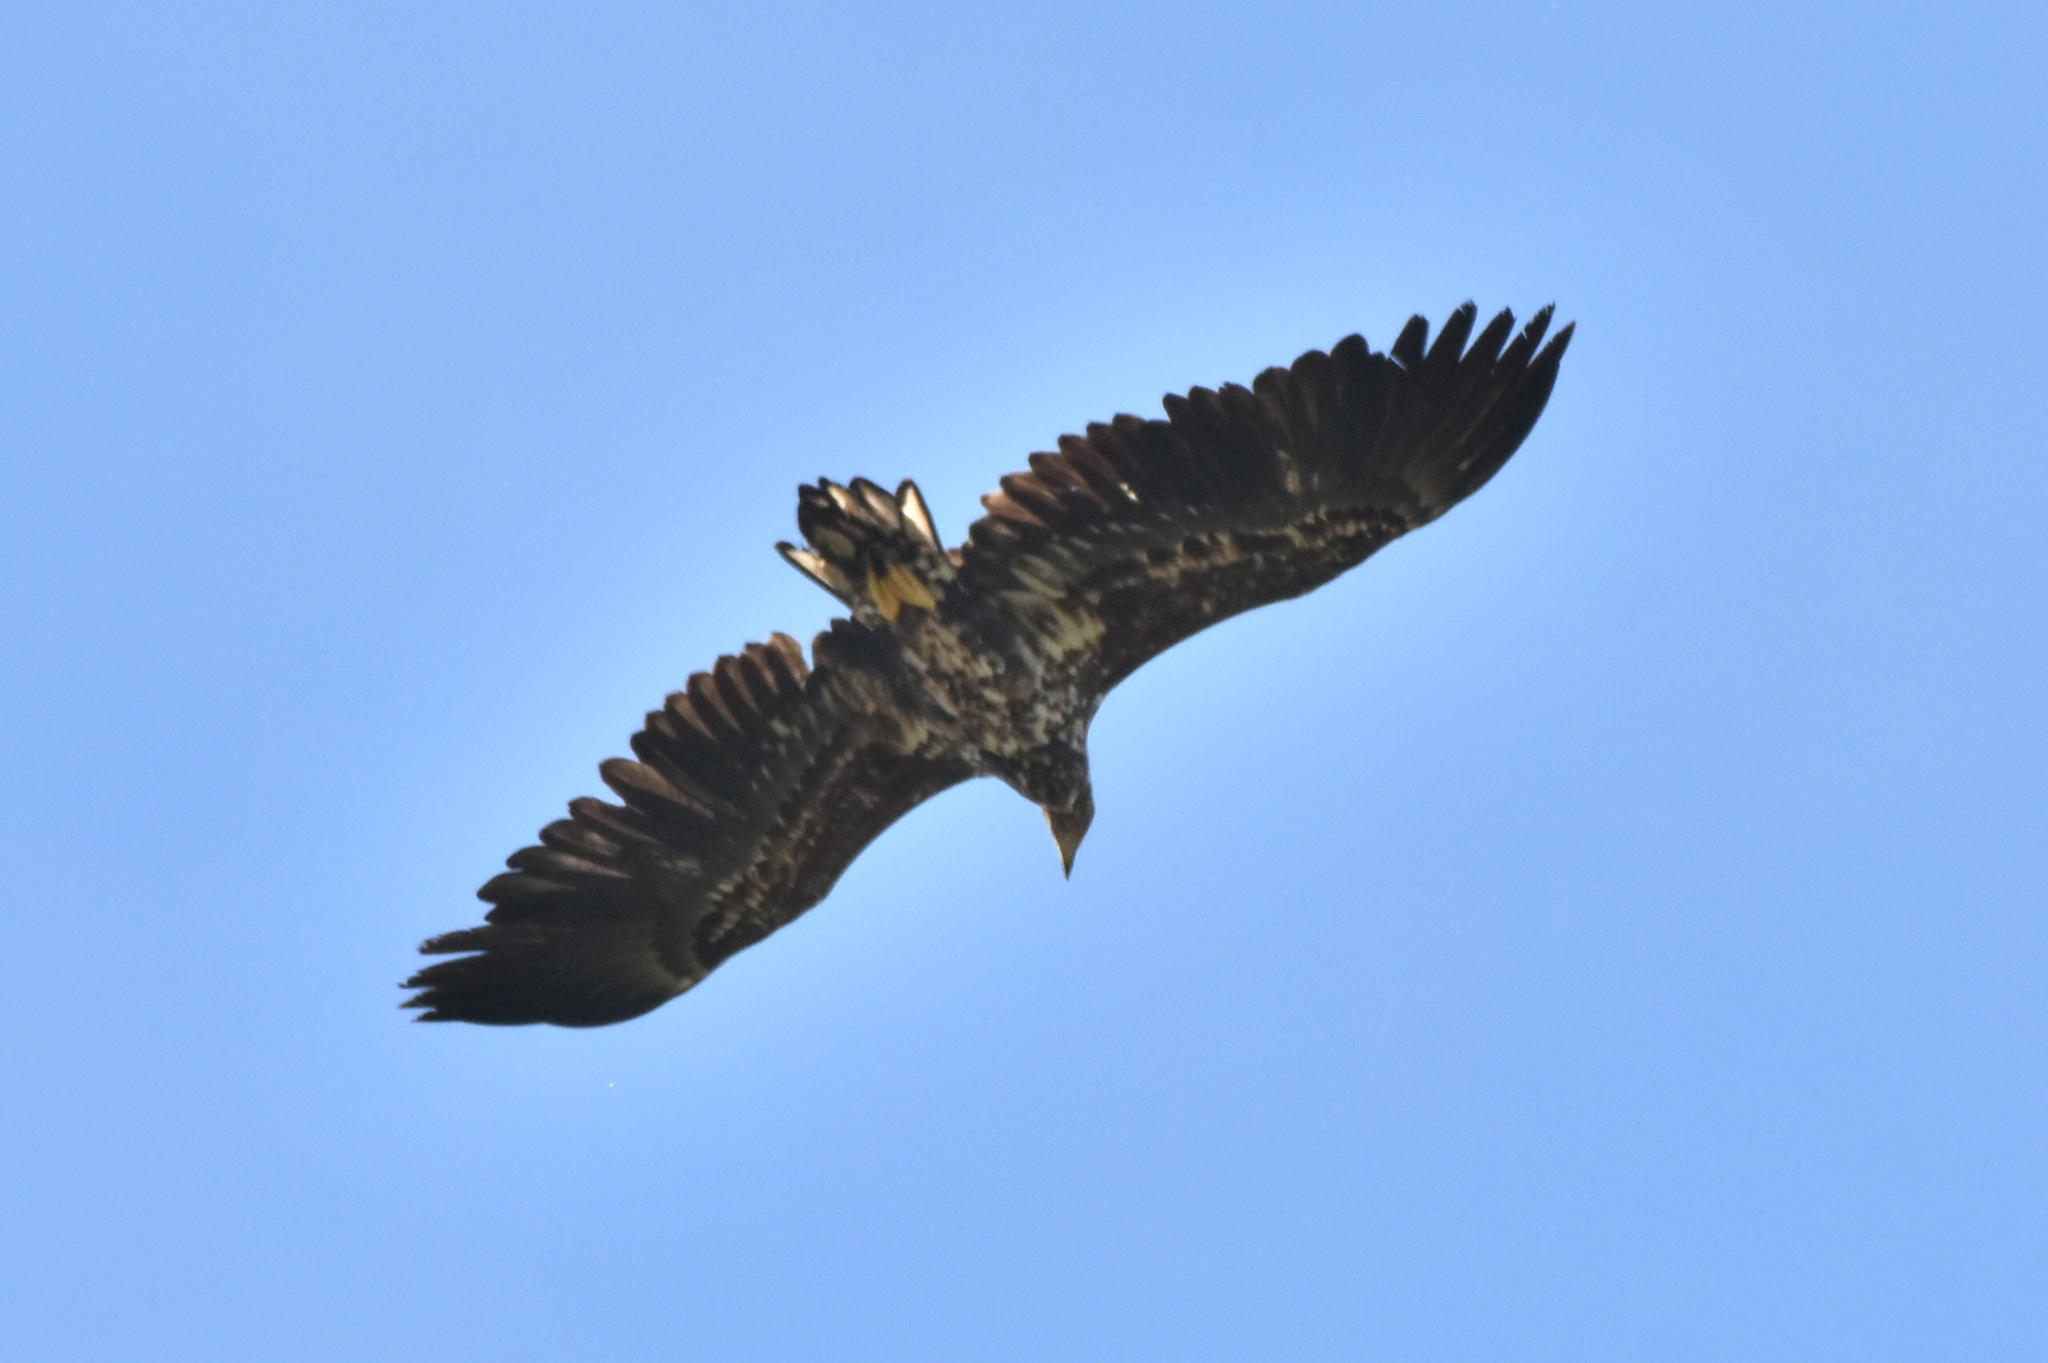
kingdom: Animalia
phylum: Chordata
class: Aves
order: Accipitriformes
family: Accipitridae
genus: Haliaeetus
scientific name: Haliaeetus albicilla
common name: White-tailed eagle
